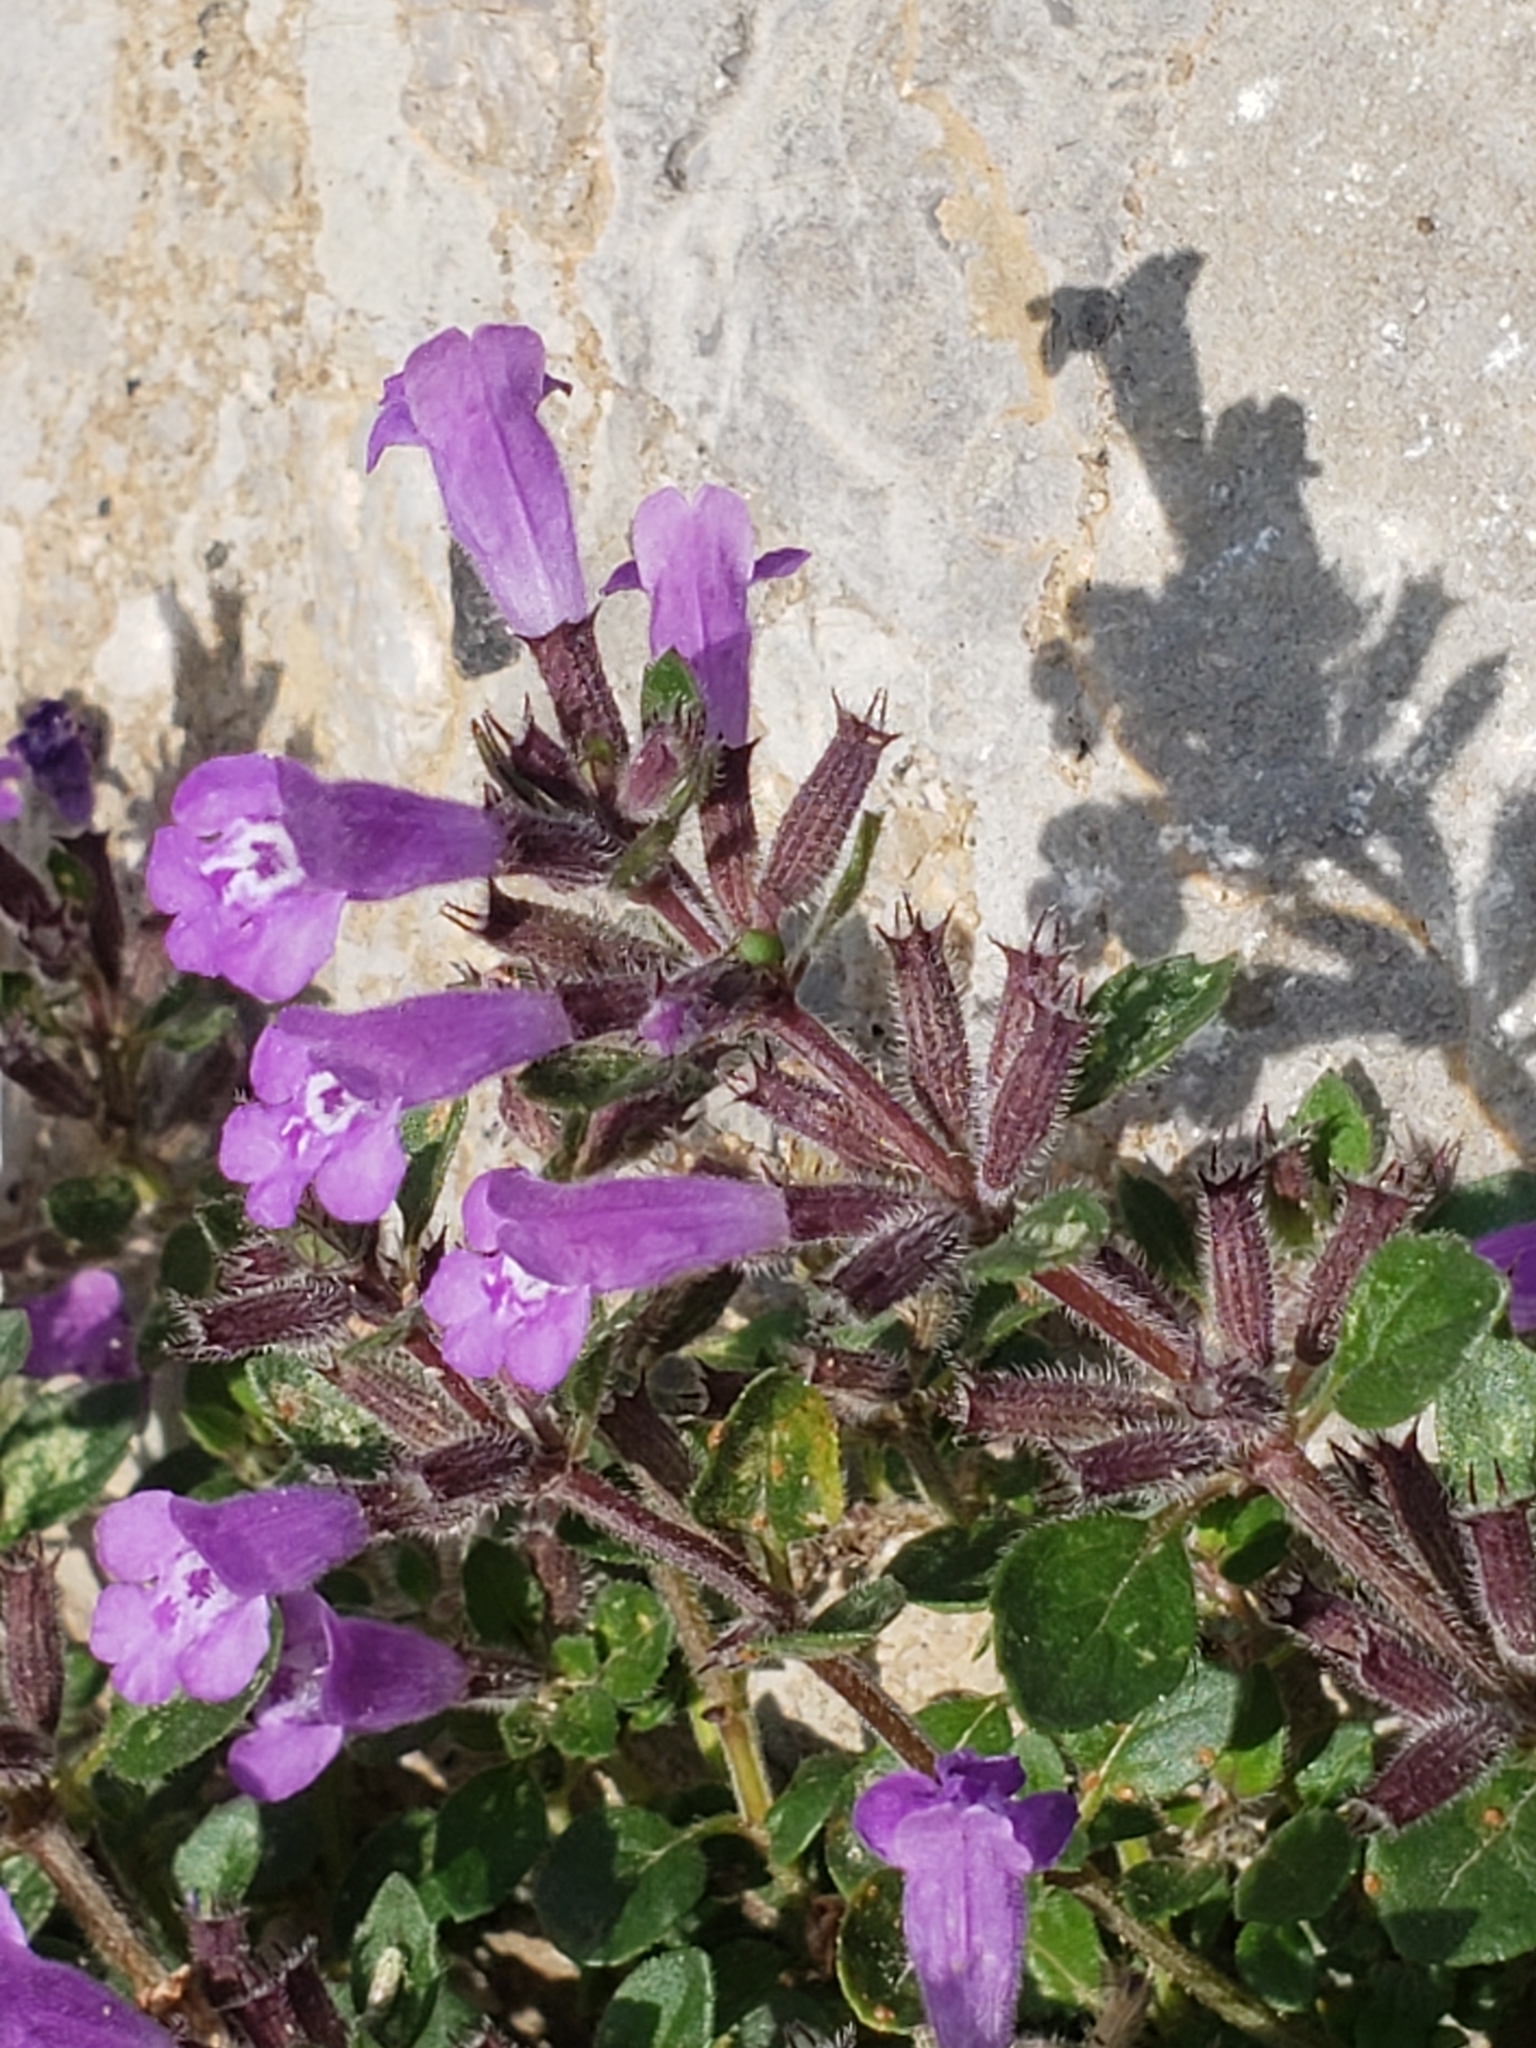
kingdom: Plantae
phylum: Tracheophyta
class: Magnoliopsida
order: Lamiales
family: Lamiaceae
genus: Clinopodium
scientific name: Clinopodium alpinum
